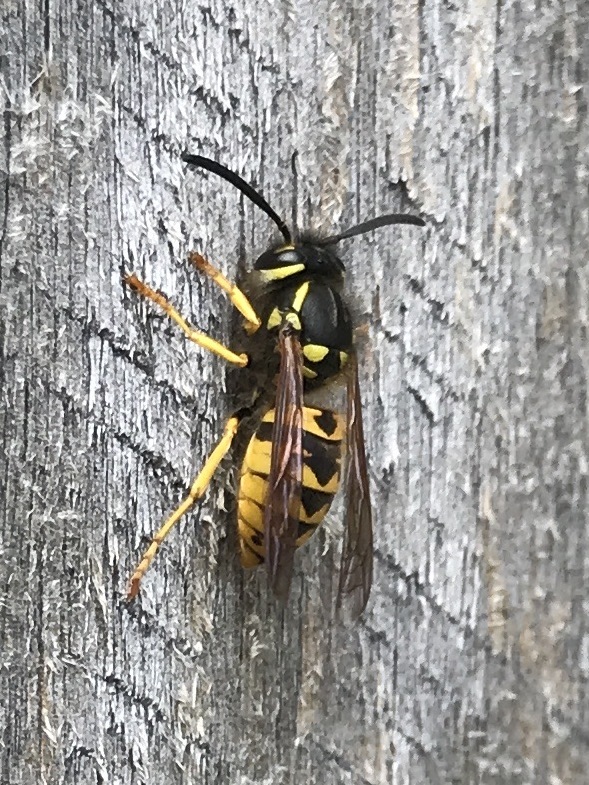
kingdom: Animalia
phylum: Arthropoda
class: Insecta
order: Hymenoptera
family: Vespidae
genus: Vespula
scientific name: Vespula germanica
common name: German wasp
